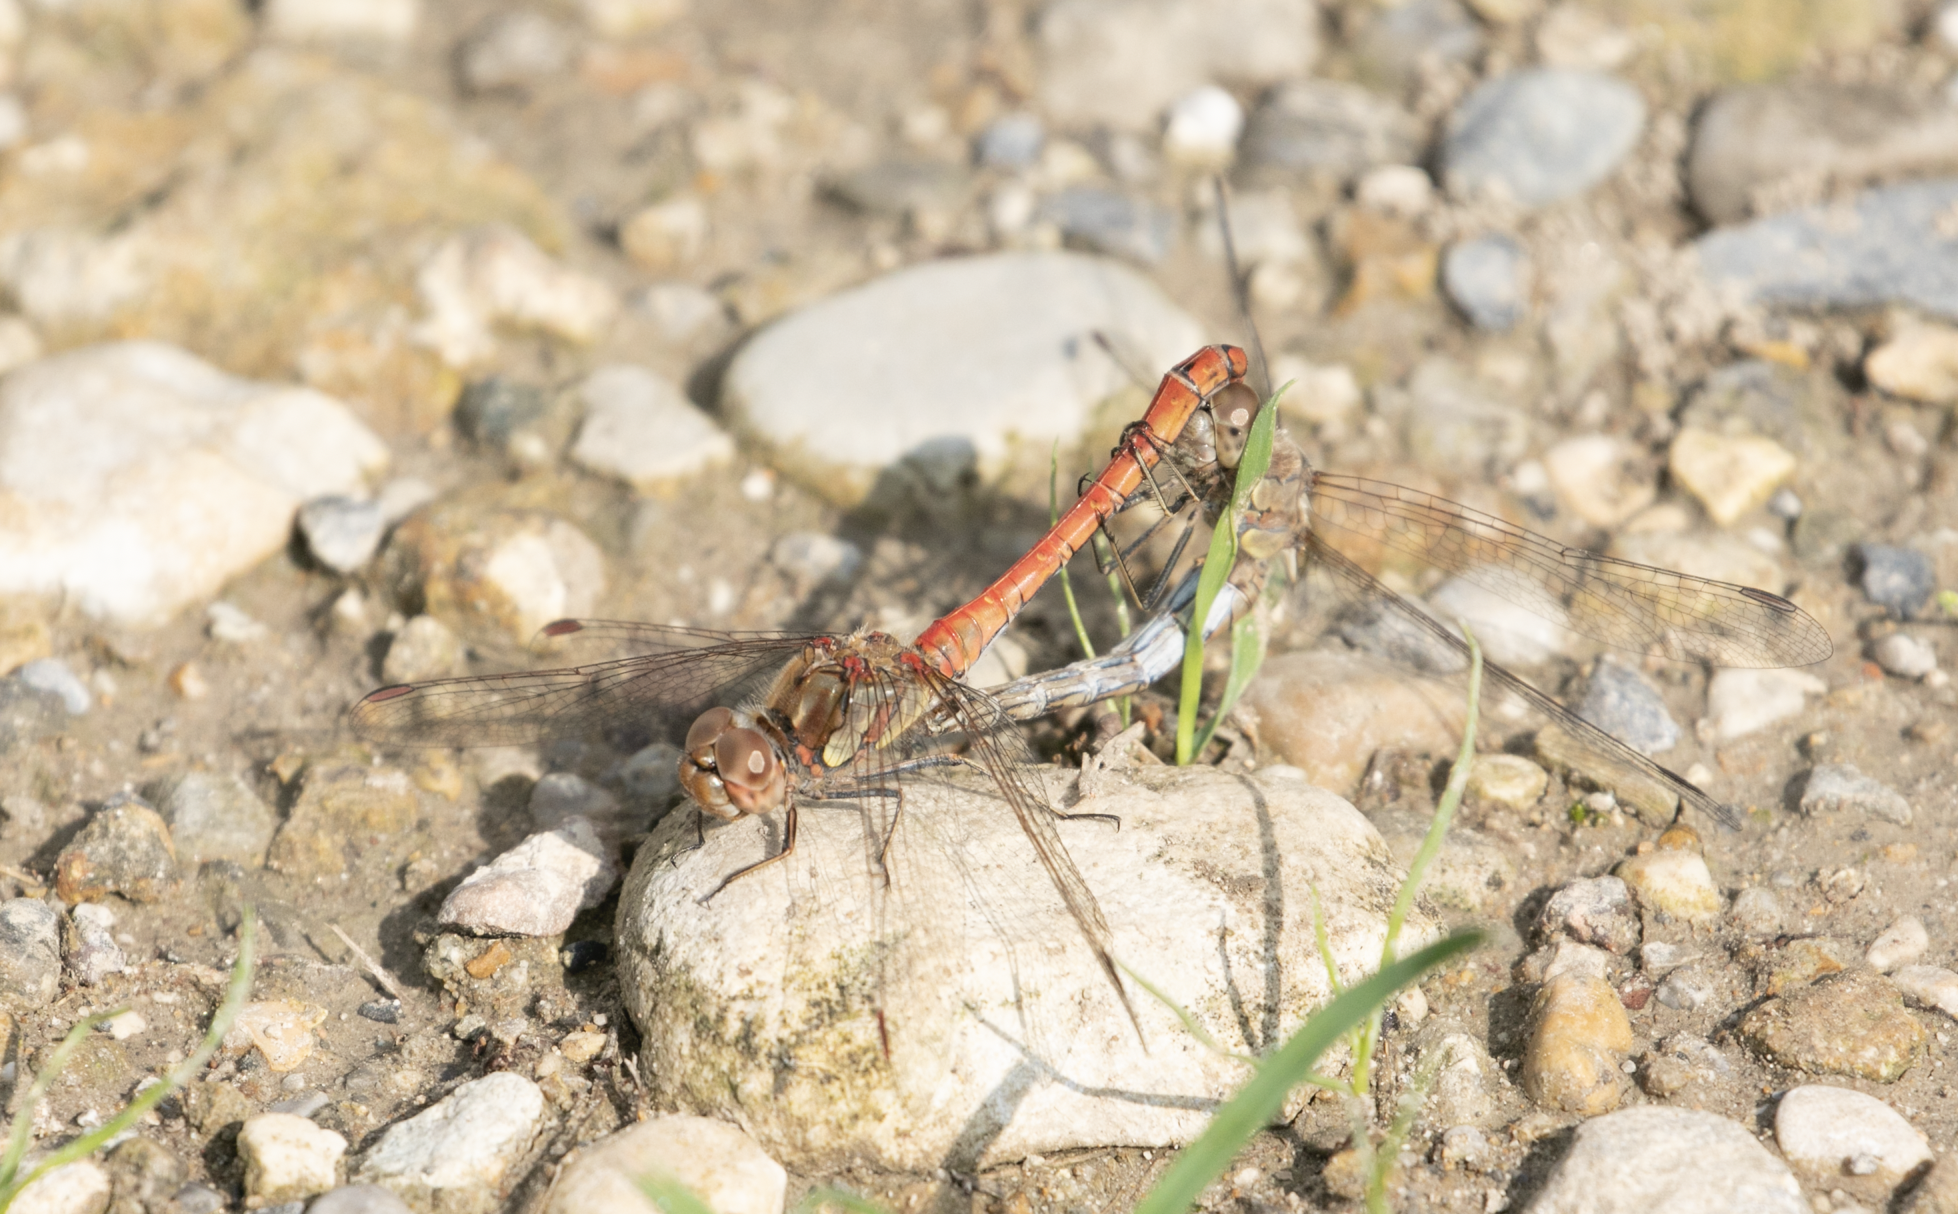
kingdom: Animalia
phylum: Arthropoda
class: Insecta
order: Odonata
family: Libellulidae
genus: Sympetrum
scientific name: Sympetrum striolatum
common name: Common darter
